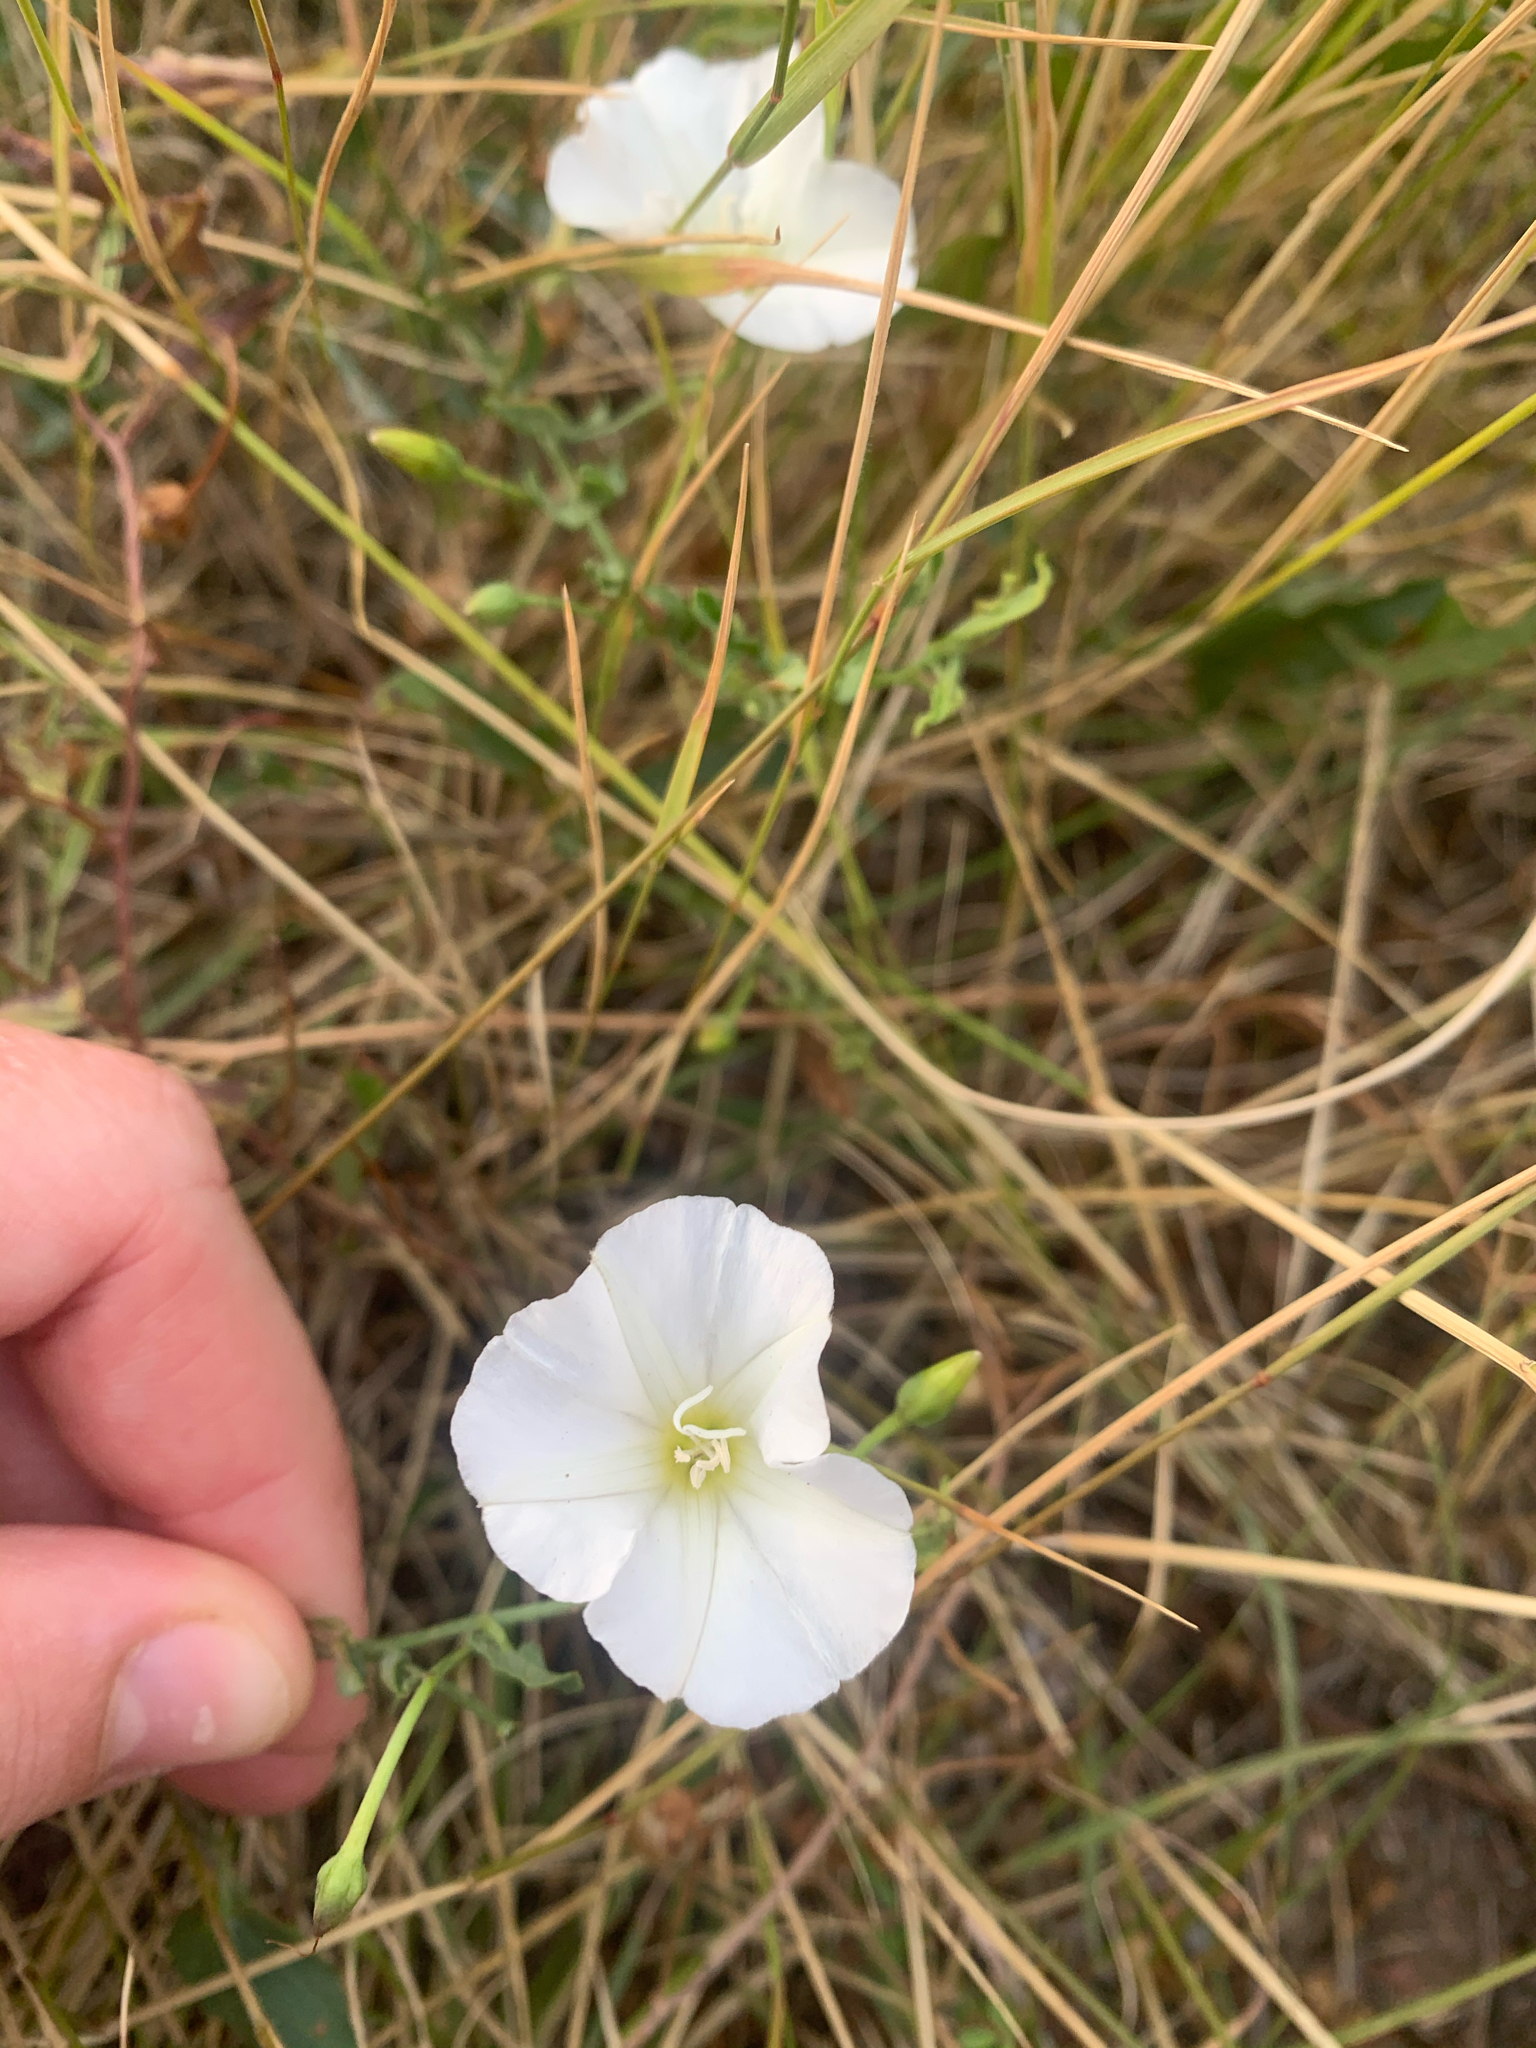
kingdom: Plantae
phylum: Tracheophyta
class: Magnoliopsida
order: Solanales
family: Convolvulaceae
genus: Convolvulus
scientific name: Convolvulus arvensis
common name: Field bindweed
